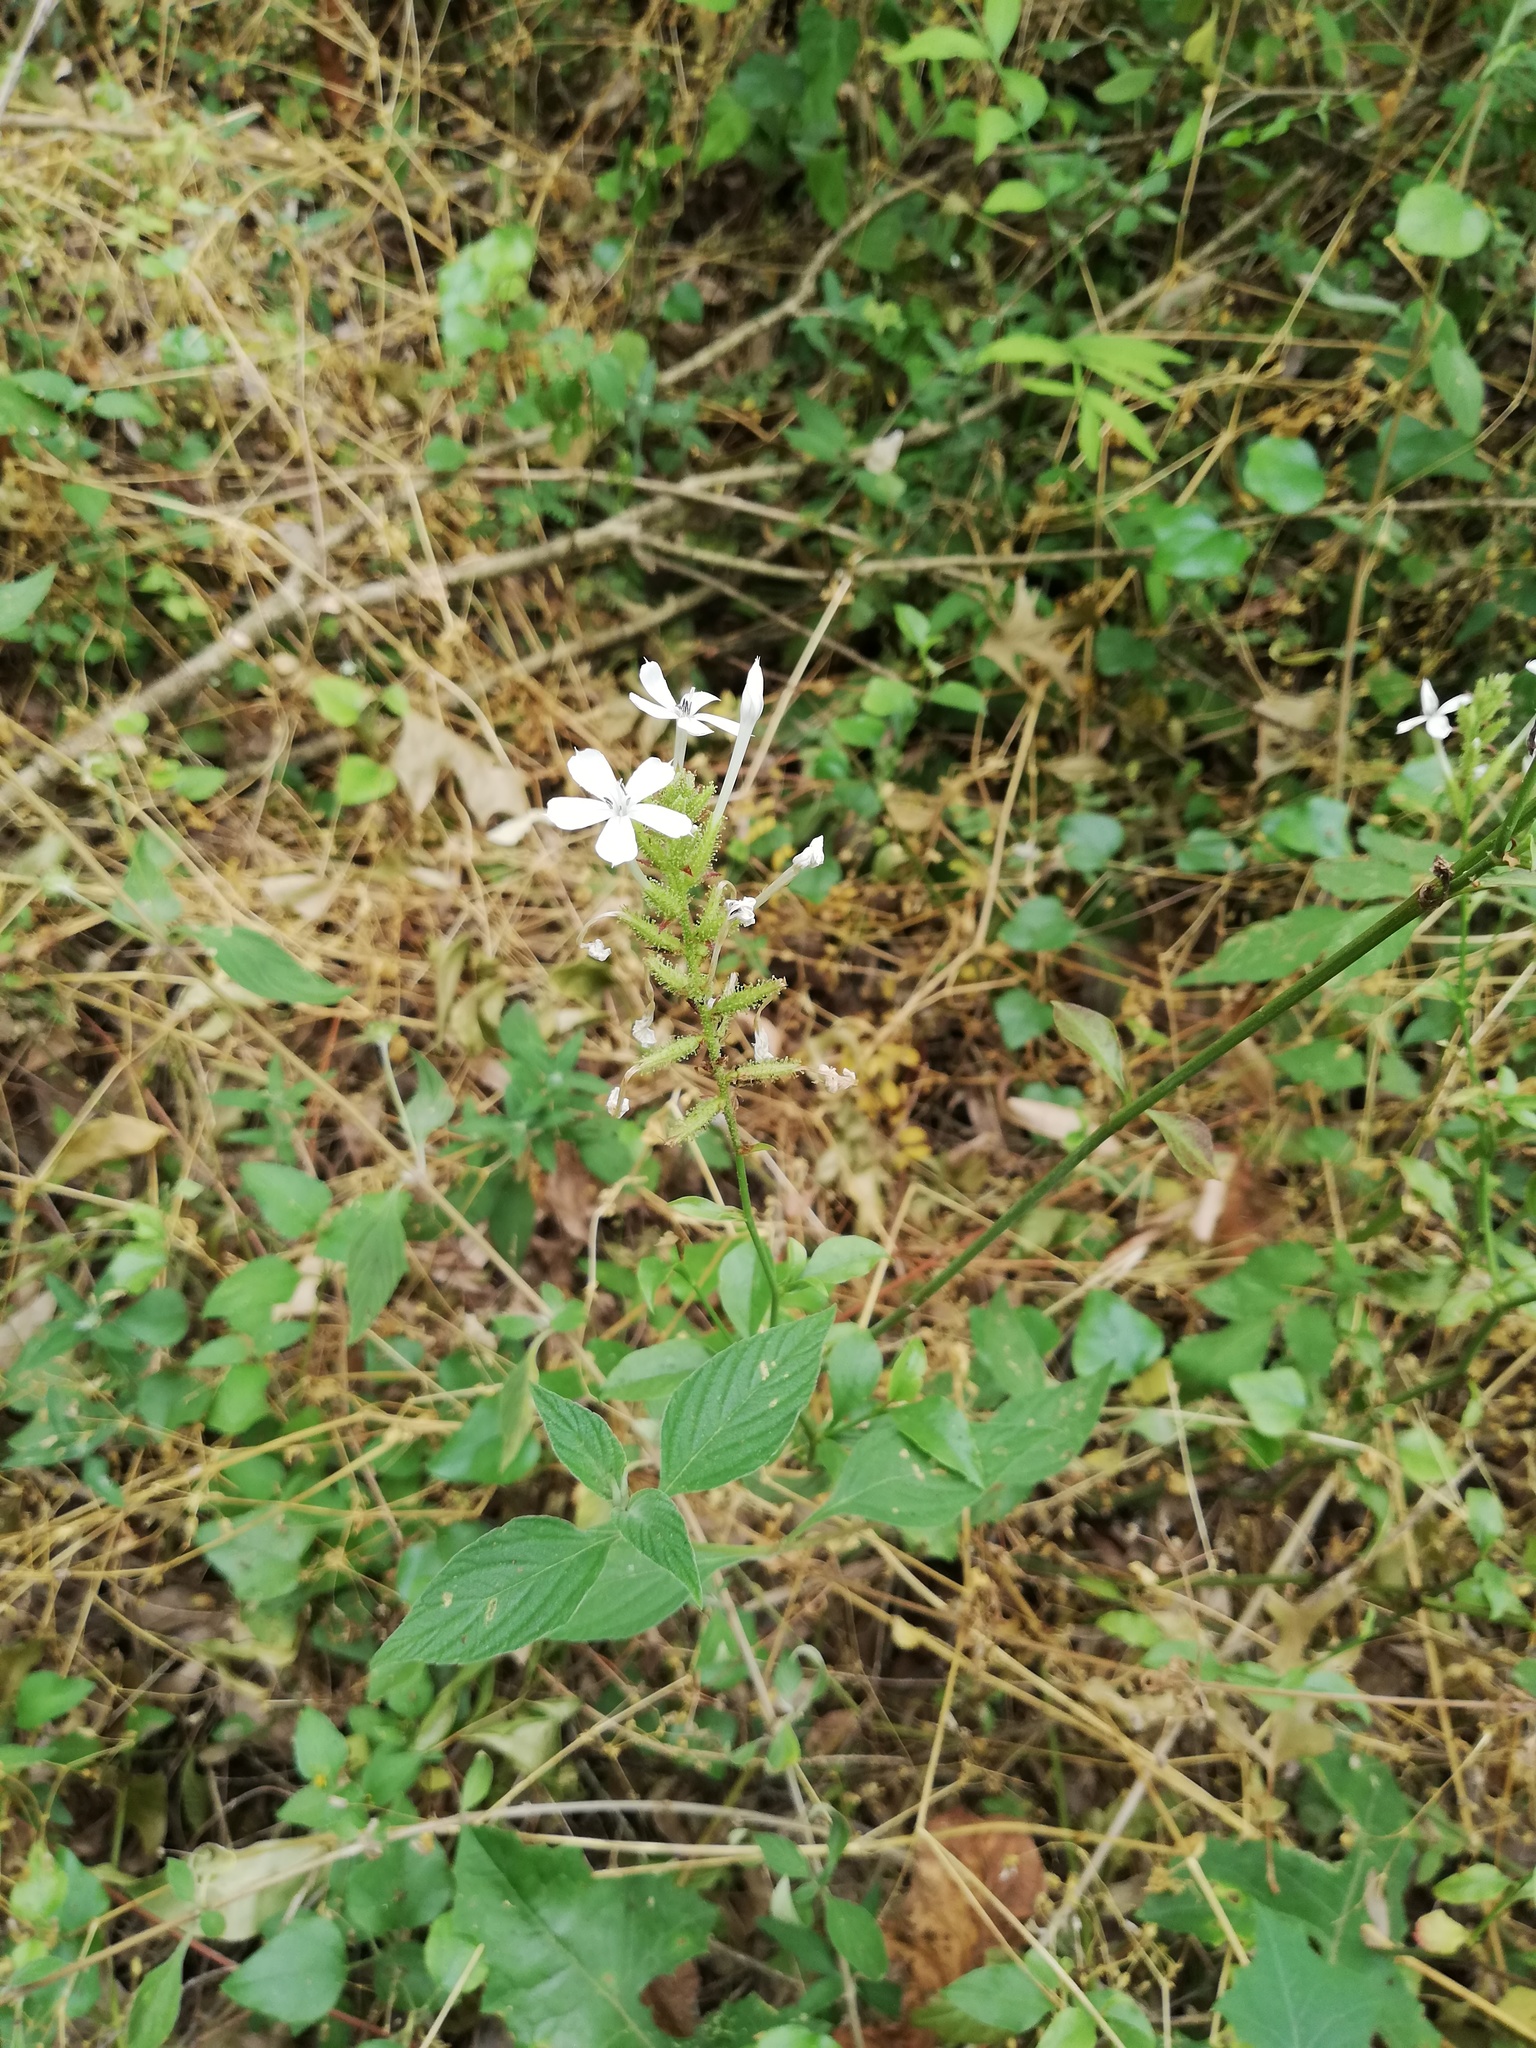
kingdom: Plantae
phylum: Tracheophyta
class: Magnoliopsida
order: Caryophyllales
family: Plumbaginaceae
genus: Plumbago
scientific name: Plumbago zeylanica
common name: Doctorbush
